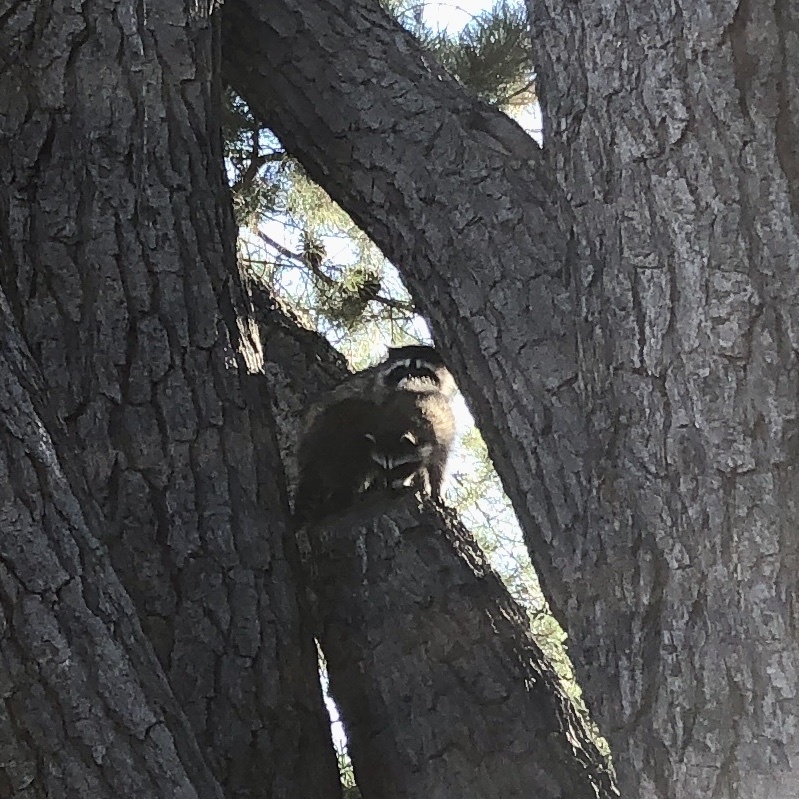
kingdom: Animalia
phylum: Chordata
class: Mammalia
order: Carnivora
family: Procyonidae
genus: Procyon
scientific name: Procyon lotor
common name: Raccoon
